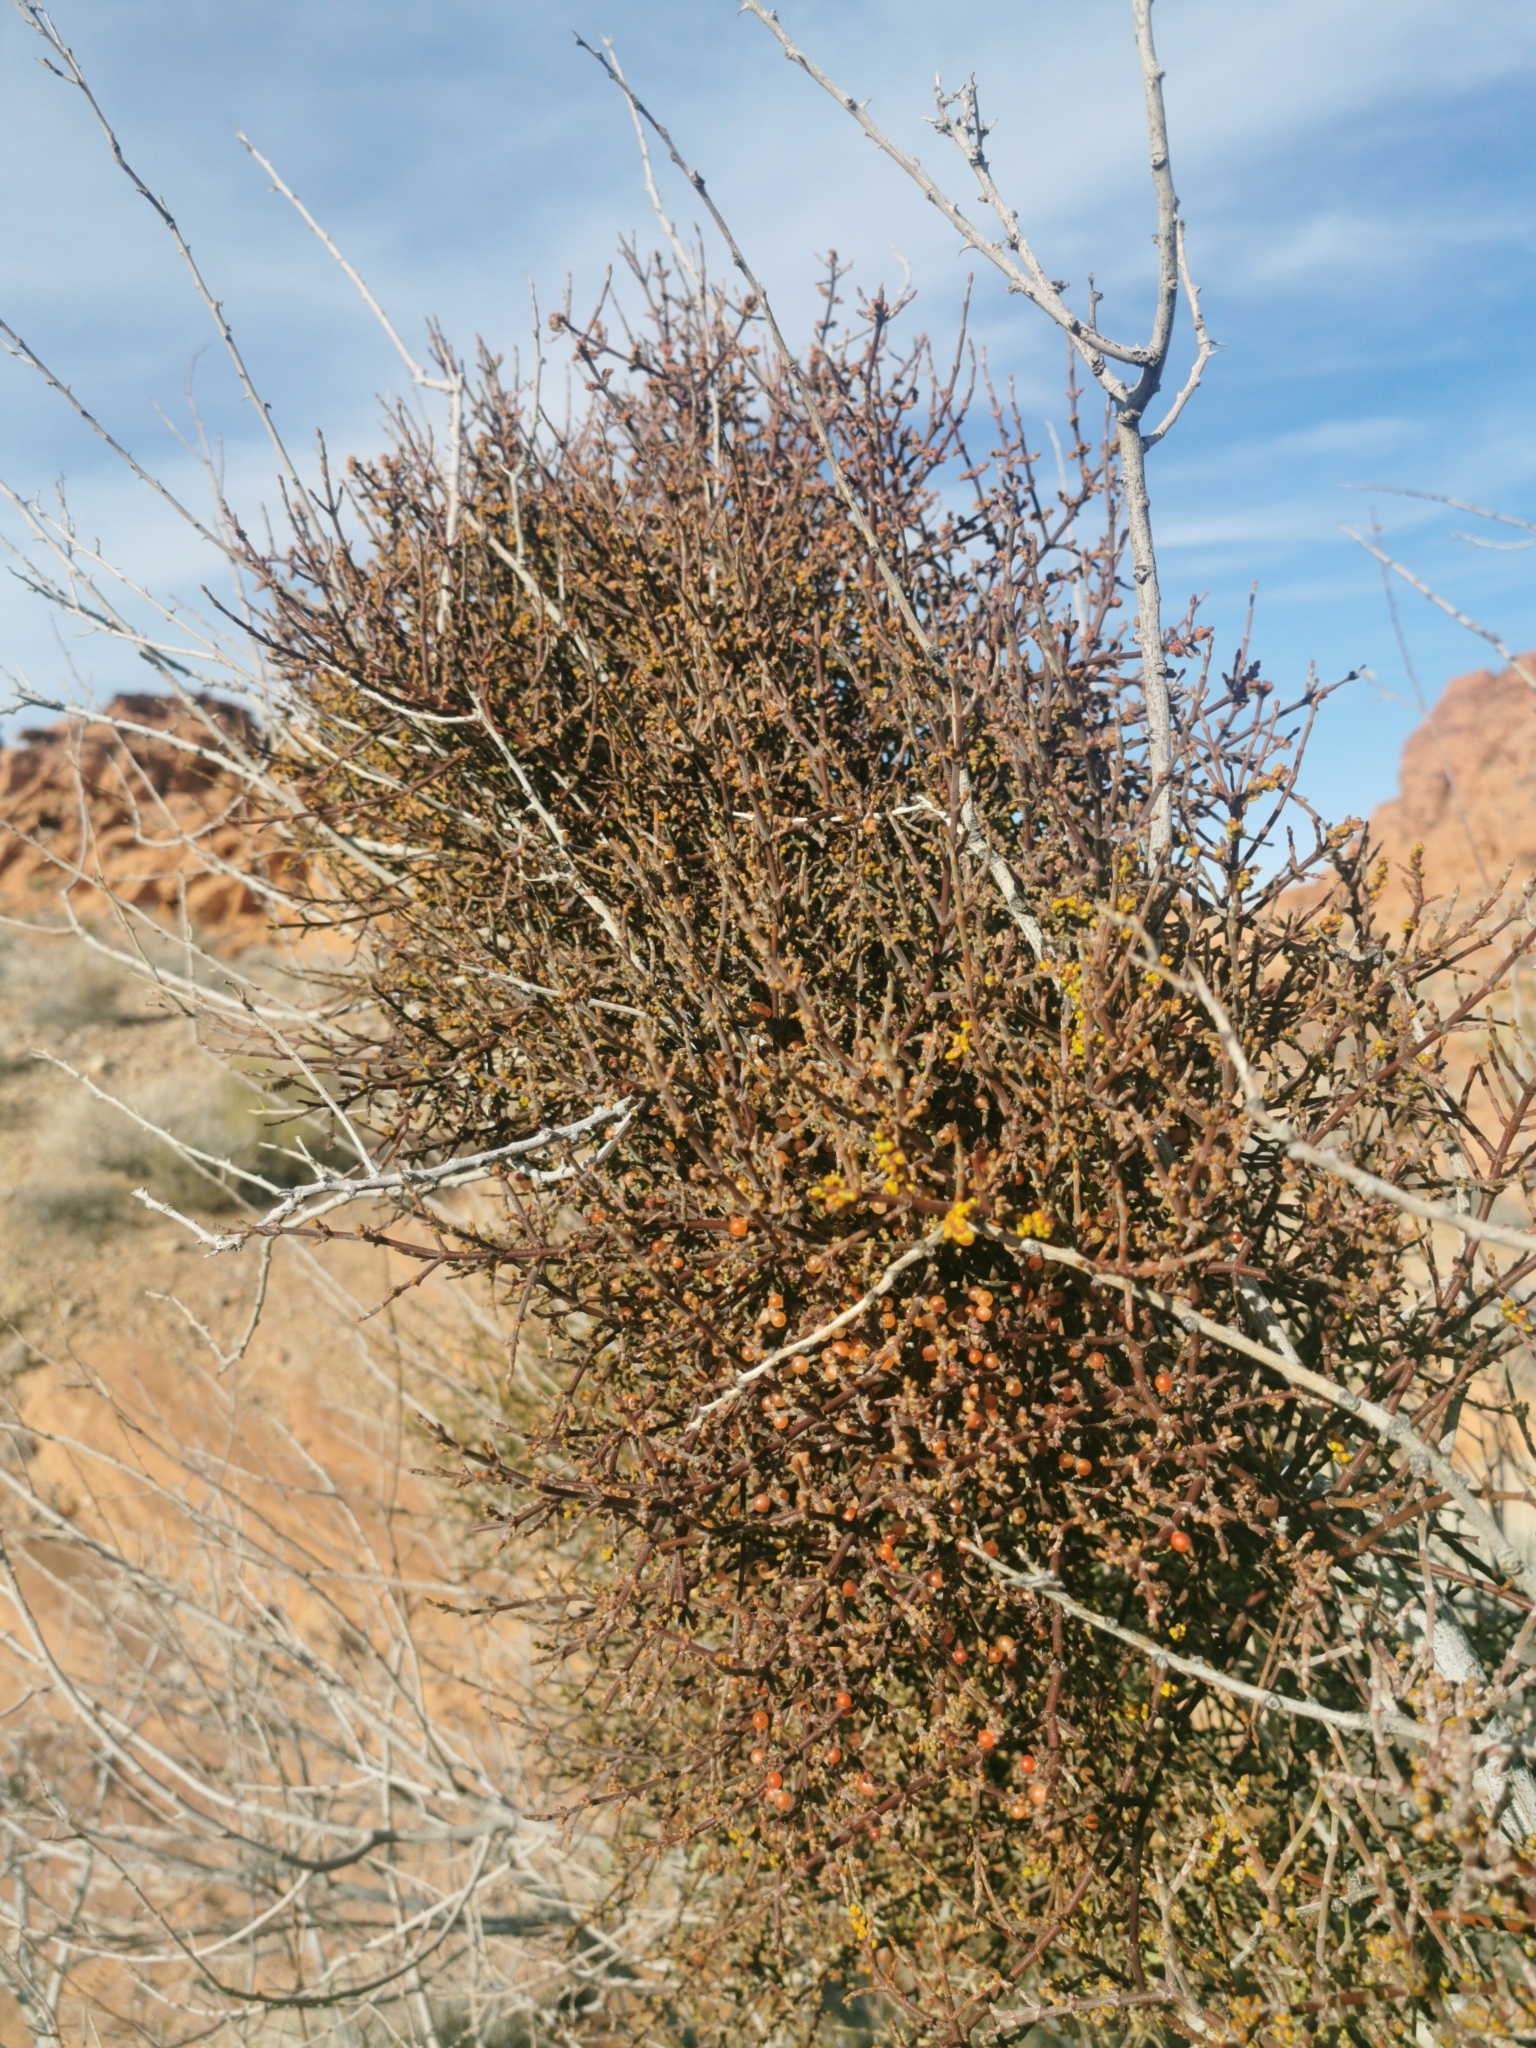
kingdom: Plantae
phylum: Tracheophyta
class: Magnoliopsida
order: Santalales
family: Viscaceae
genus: Phoradendron
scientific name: Phoradendron californicum
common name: Acacia mistletoe
